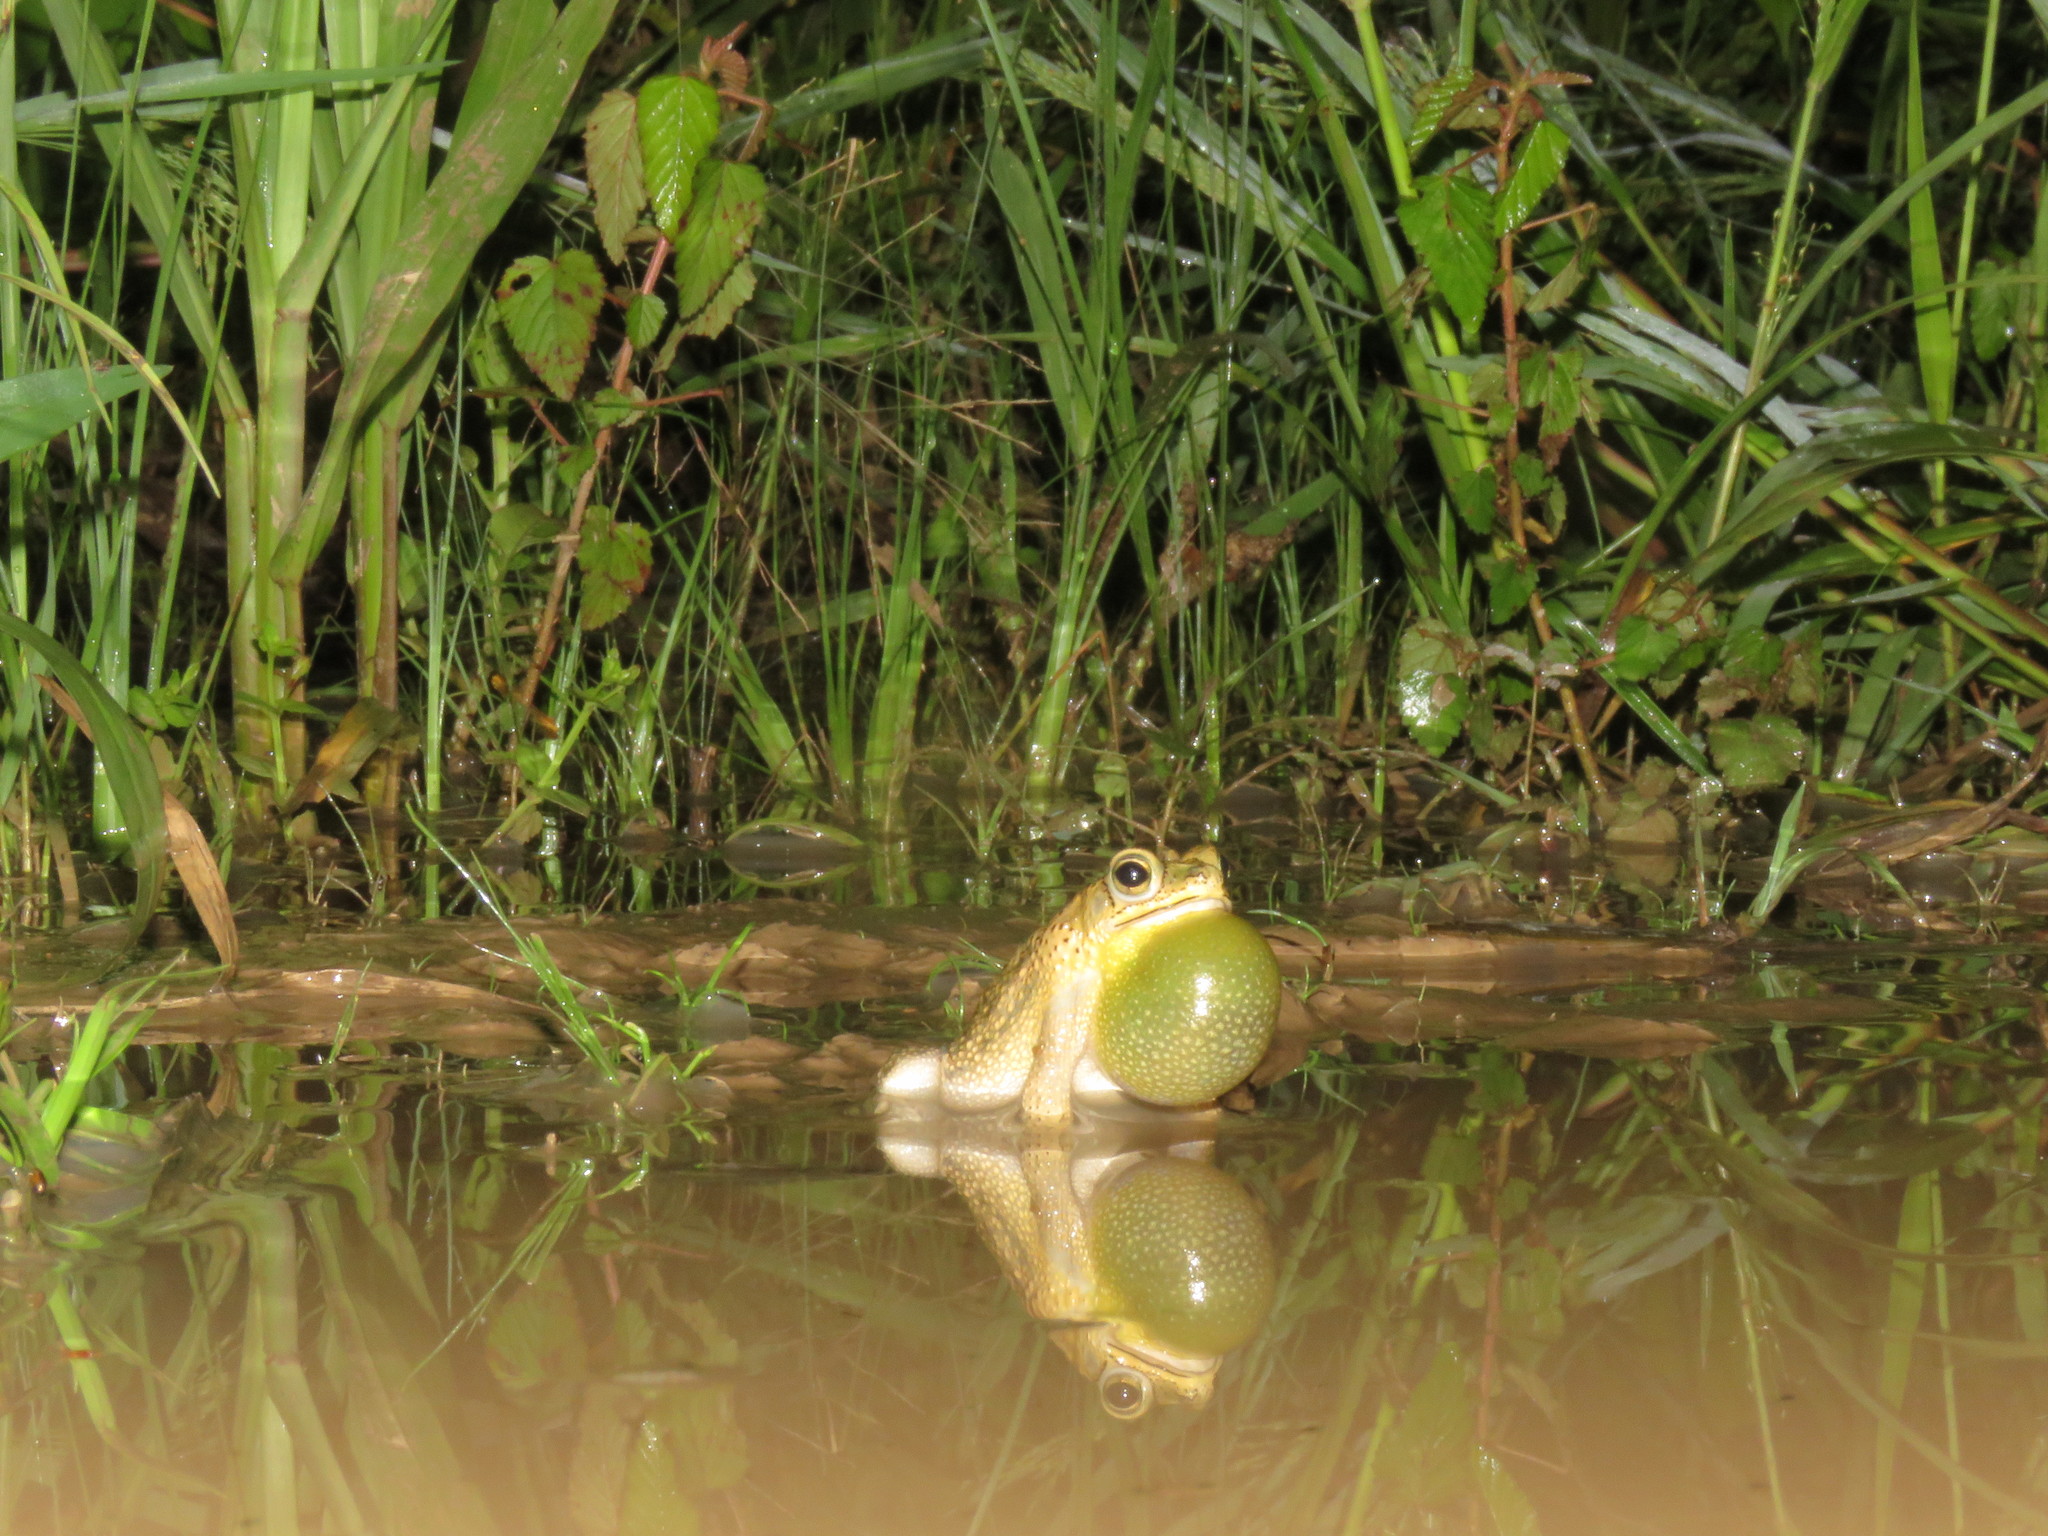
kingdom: Animalia
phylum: Chordata
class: Amphibia
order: Anura
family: Bufonidae
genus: Rhinella
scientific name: Rhinella major
